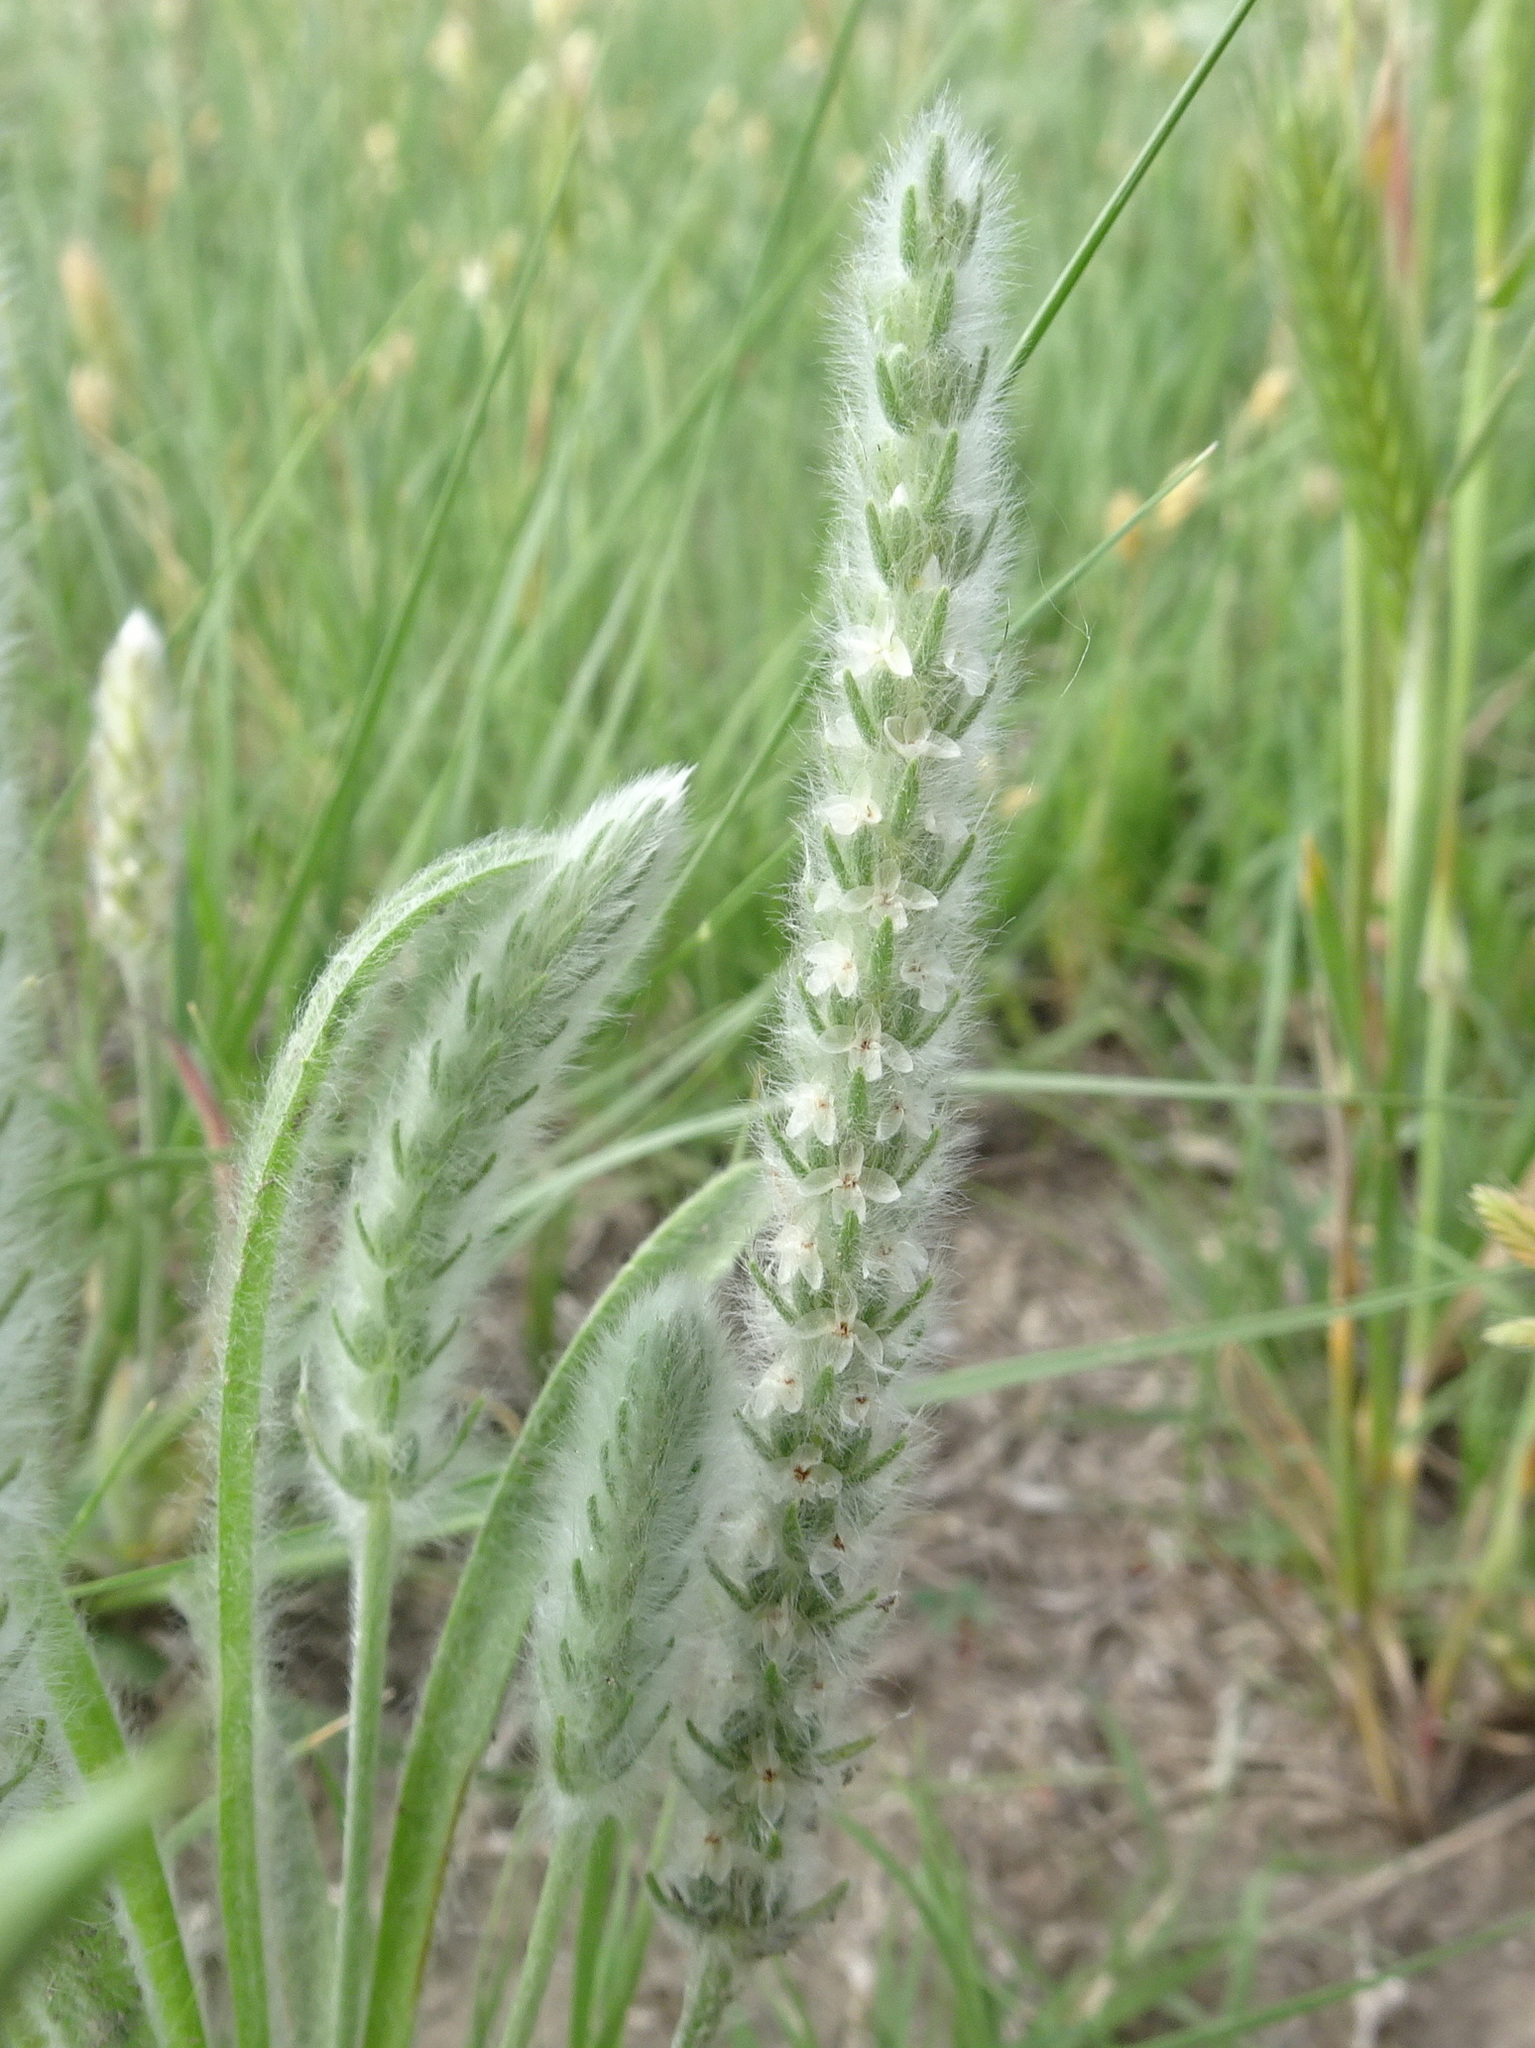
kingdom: Plantae
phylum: Tracheophyta
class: Magnoliopsida
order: Lamiales
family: Plantaginaceae
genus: Plantago
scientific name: Plantago patagonica
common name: Patagonia indian-wheat
